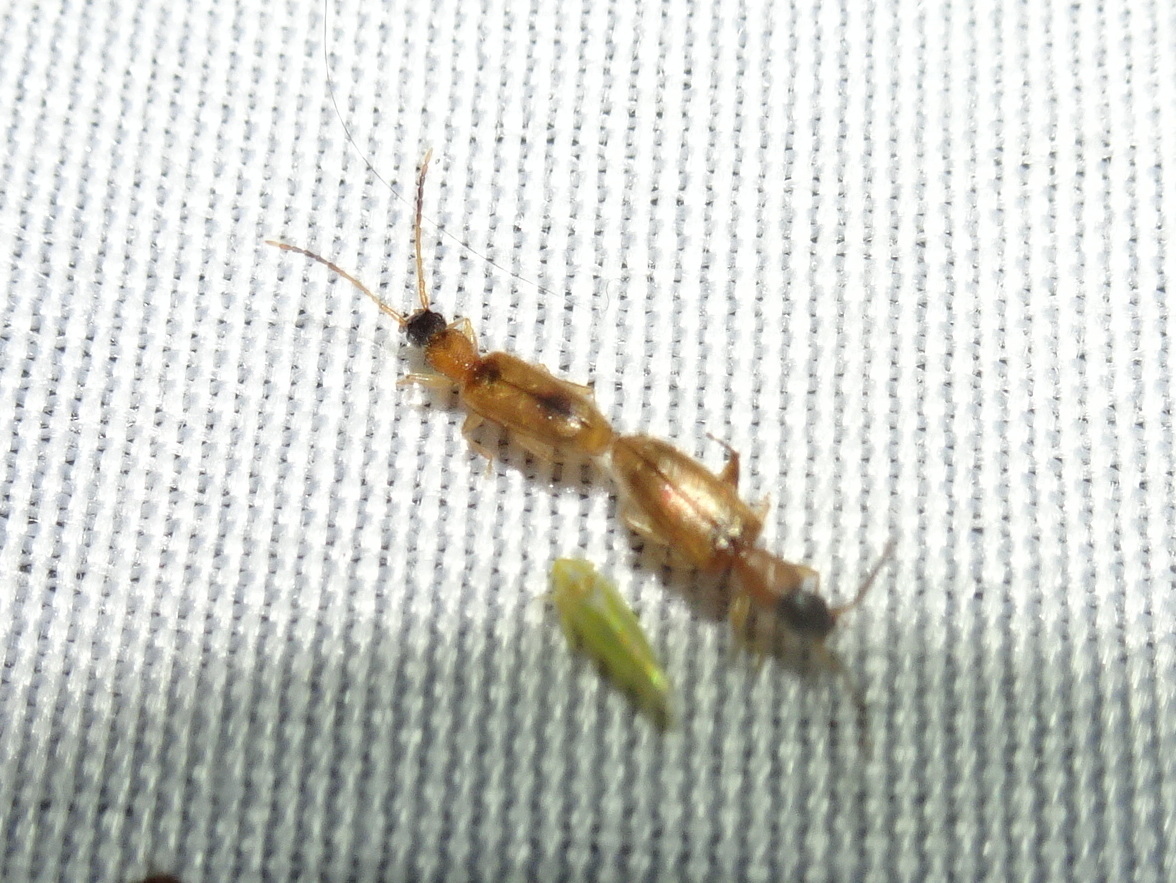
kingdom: Animalia
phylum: Arthropoda
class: Insecta
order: Coleoptera
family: Silvanidae
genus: Telephanus
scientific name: Telephanus velox
